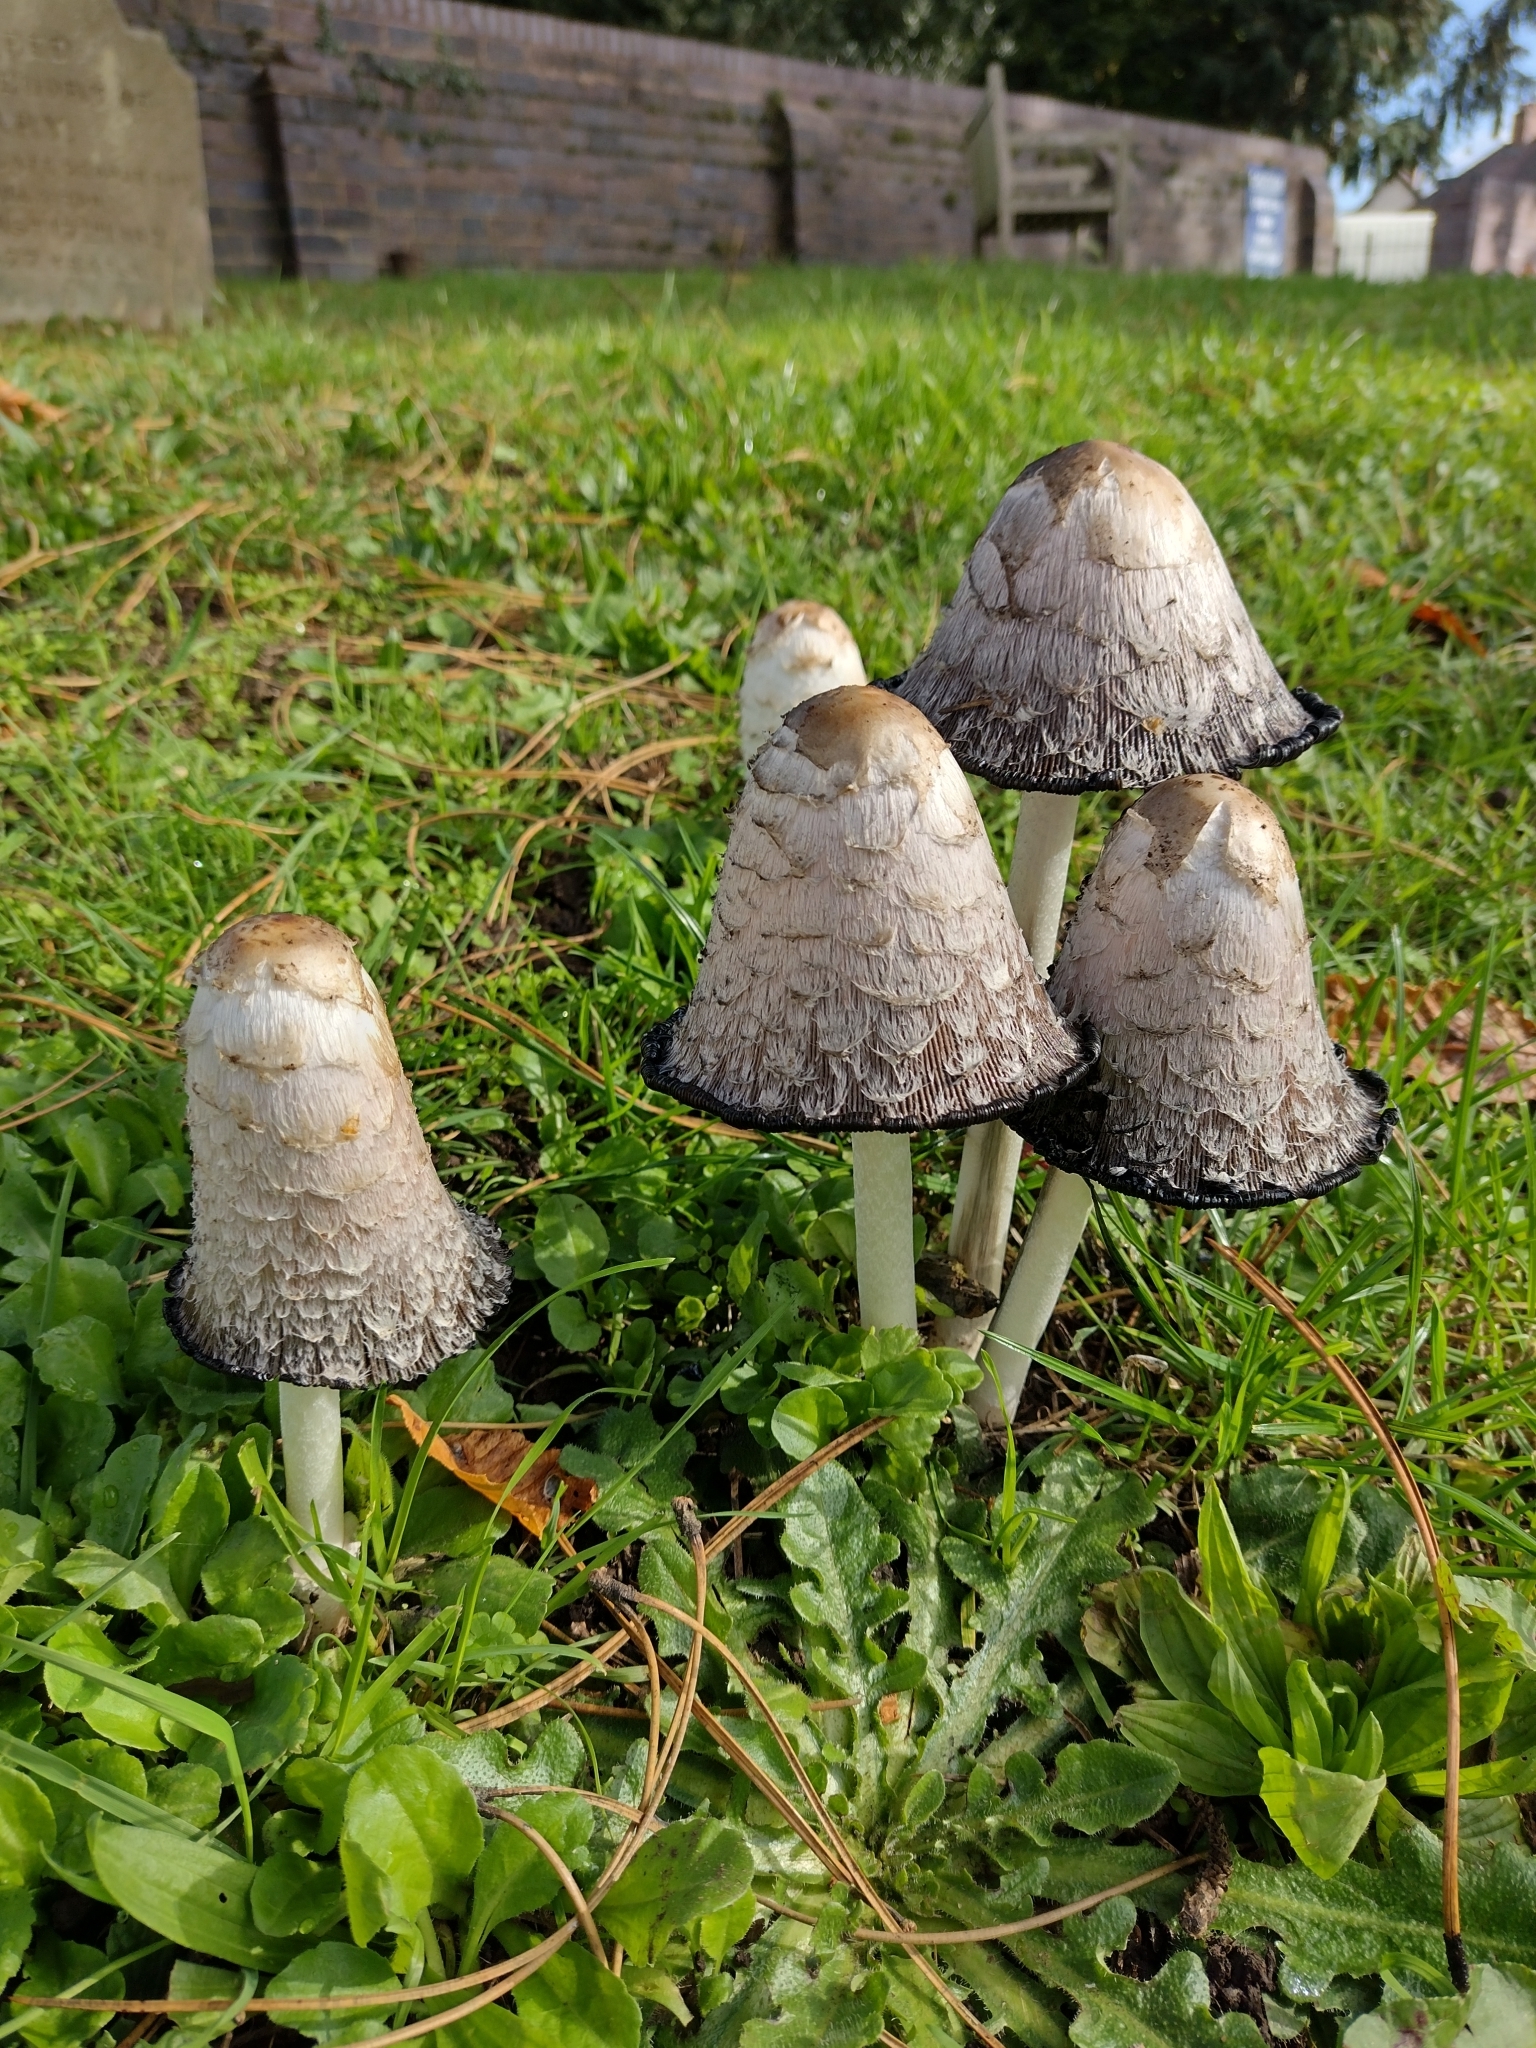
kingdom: Fungi
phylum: Basidiomycota
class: Agaricomycetes
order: Agaricales
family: Agaricaceae
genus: Coprinus
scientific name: Coprinus comatus
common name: Lawyer's wig
